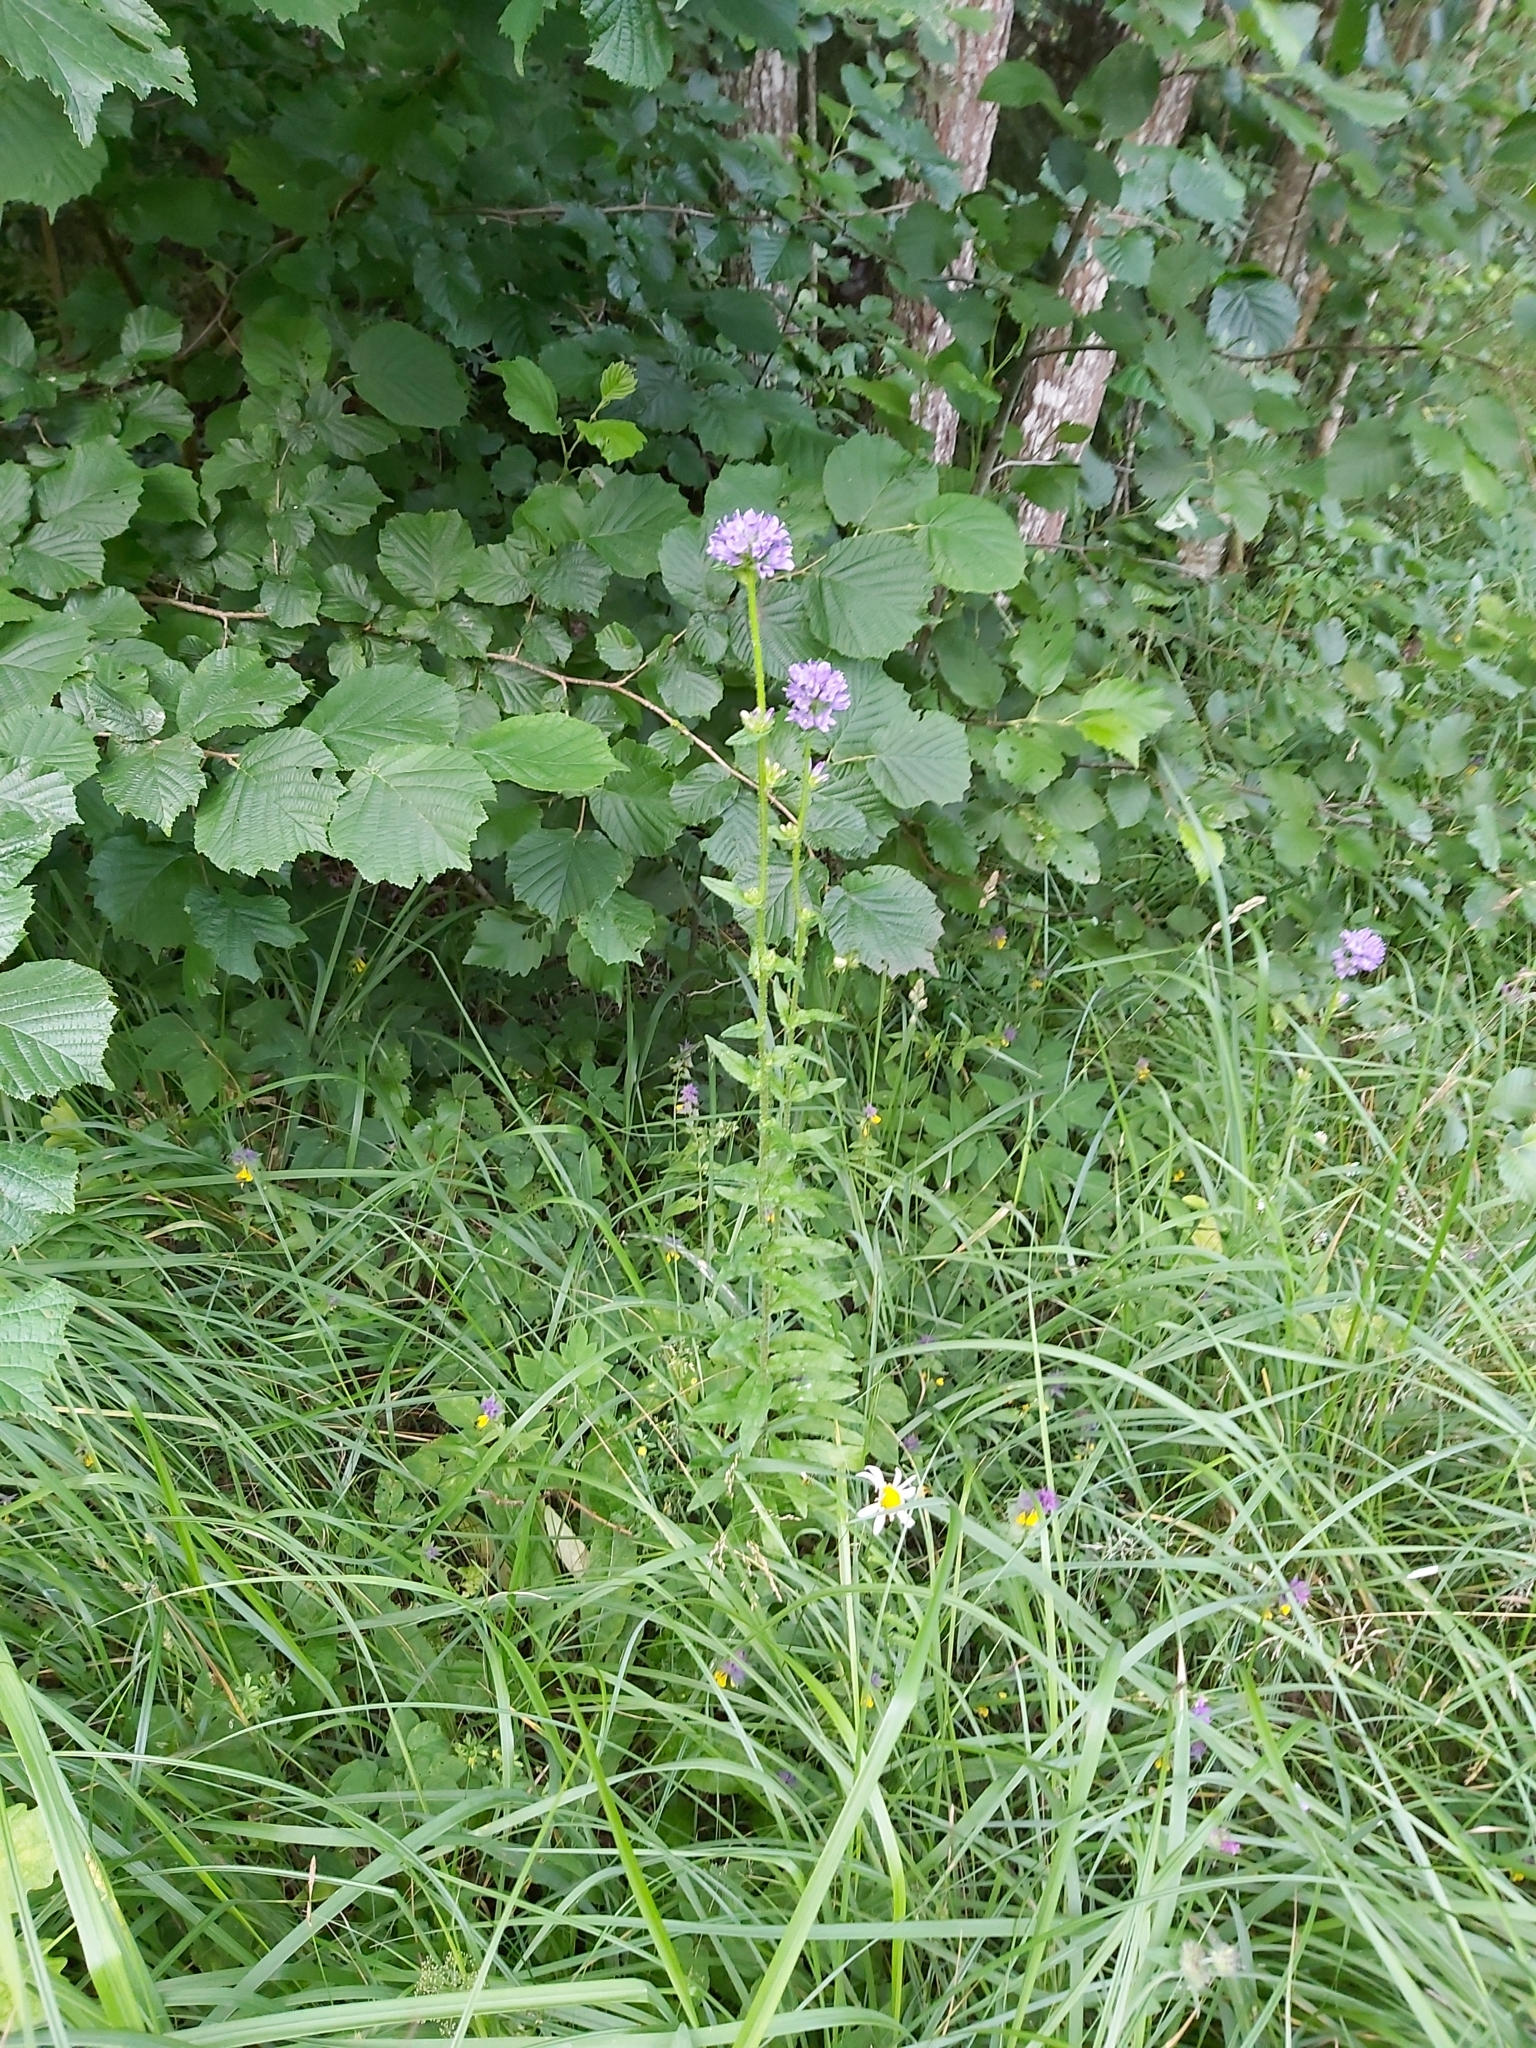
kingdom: Plantae
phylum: Tracheophyta
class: Magnoliopsida
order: Asterales
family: Campanulaceae
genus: Campanula
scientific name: Campanula cervicaria
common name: Bristly bellflower
